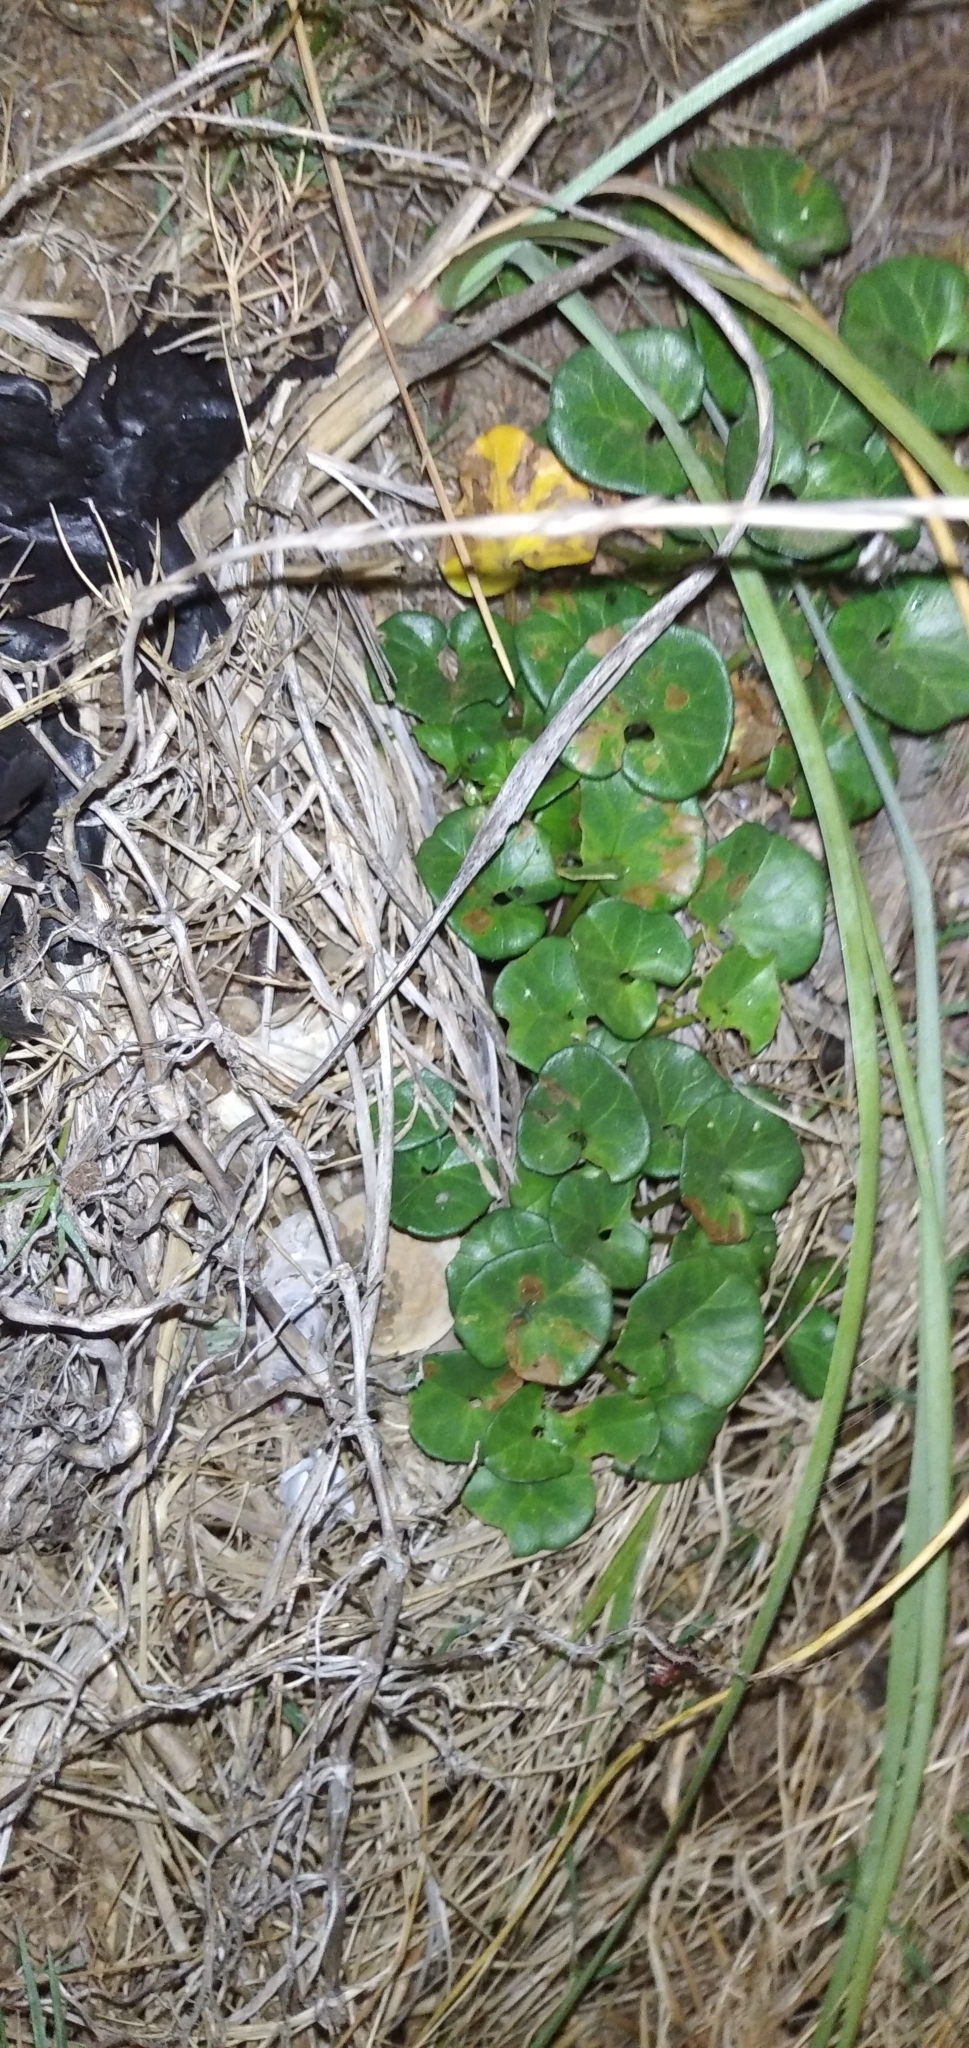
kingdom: Plantae
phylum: Tracheophyta
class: Magnoliopsida
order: Solanales
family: Convolvulaceae
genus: Calystegia
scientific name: Calystegia soldanella
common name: Sea bindweed
